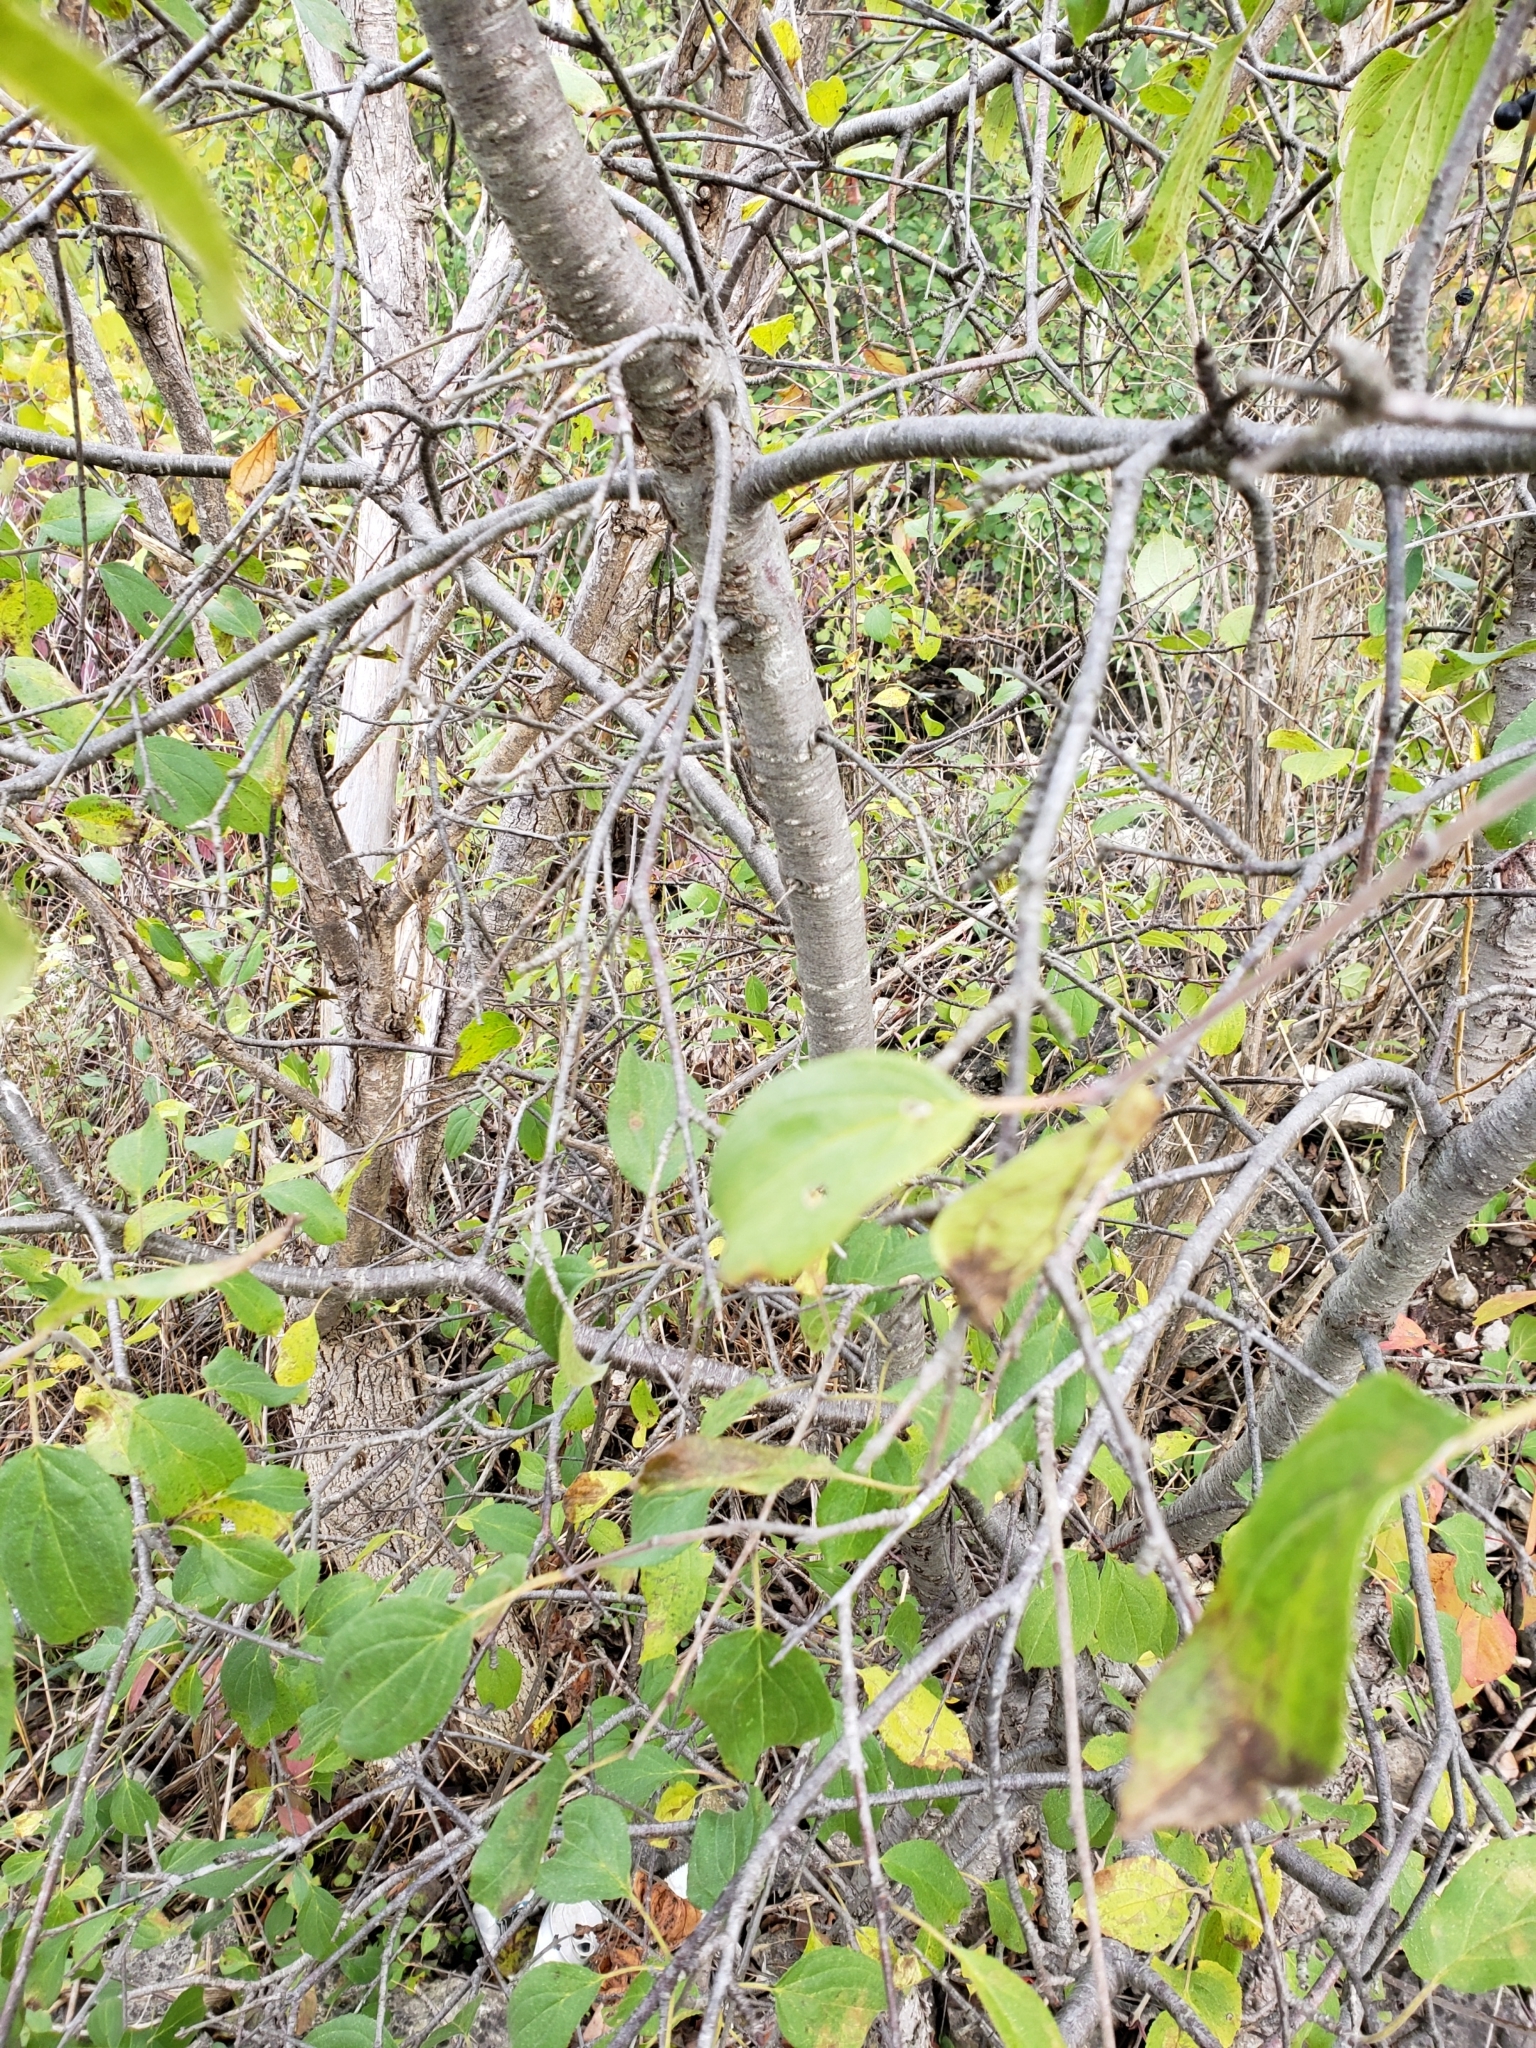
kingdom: Plantae
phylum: Tracheophyta
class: Magnoliopsida
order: Rosales
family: Rhamnaceae
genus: Rhamnus
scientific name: Rhamnus cathartica
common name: Common buckthorn
